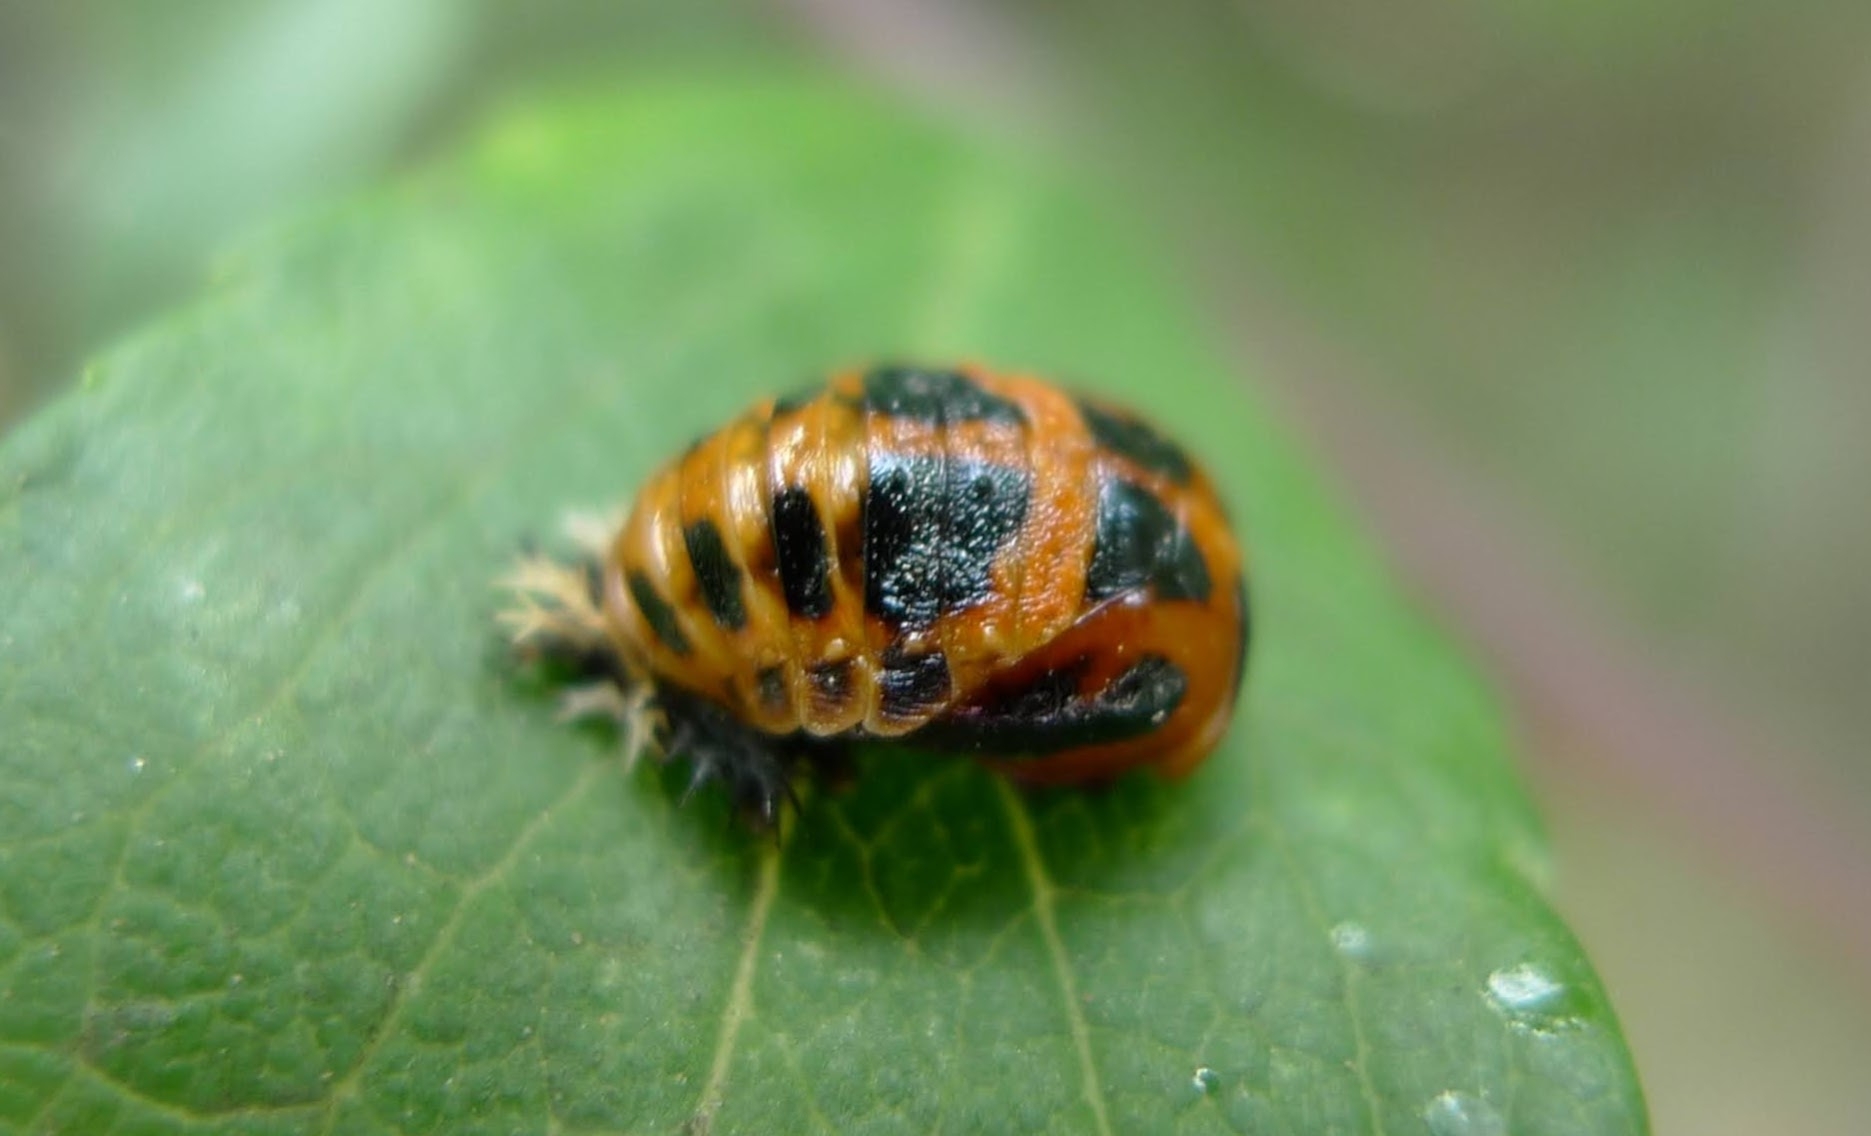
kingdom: Animalia
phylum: Arthropoda
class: Insecta
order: Coleoptera
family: Coccinellidae
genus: Harmonia
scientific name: Harmonia axyridis
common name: Harlequin ladybird
